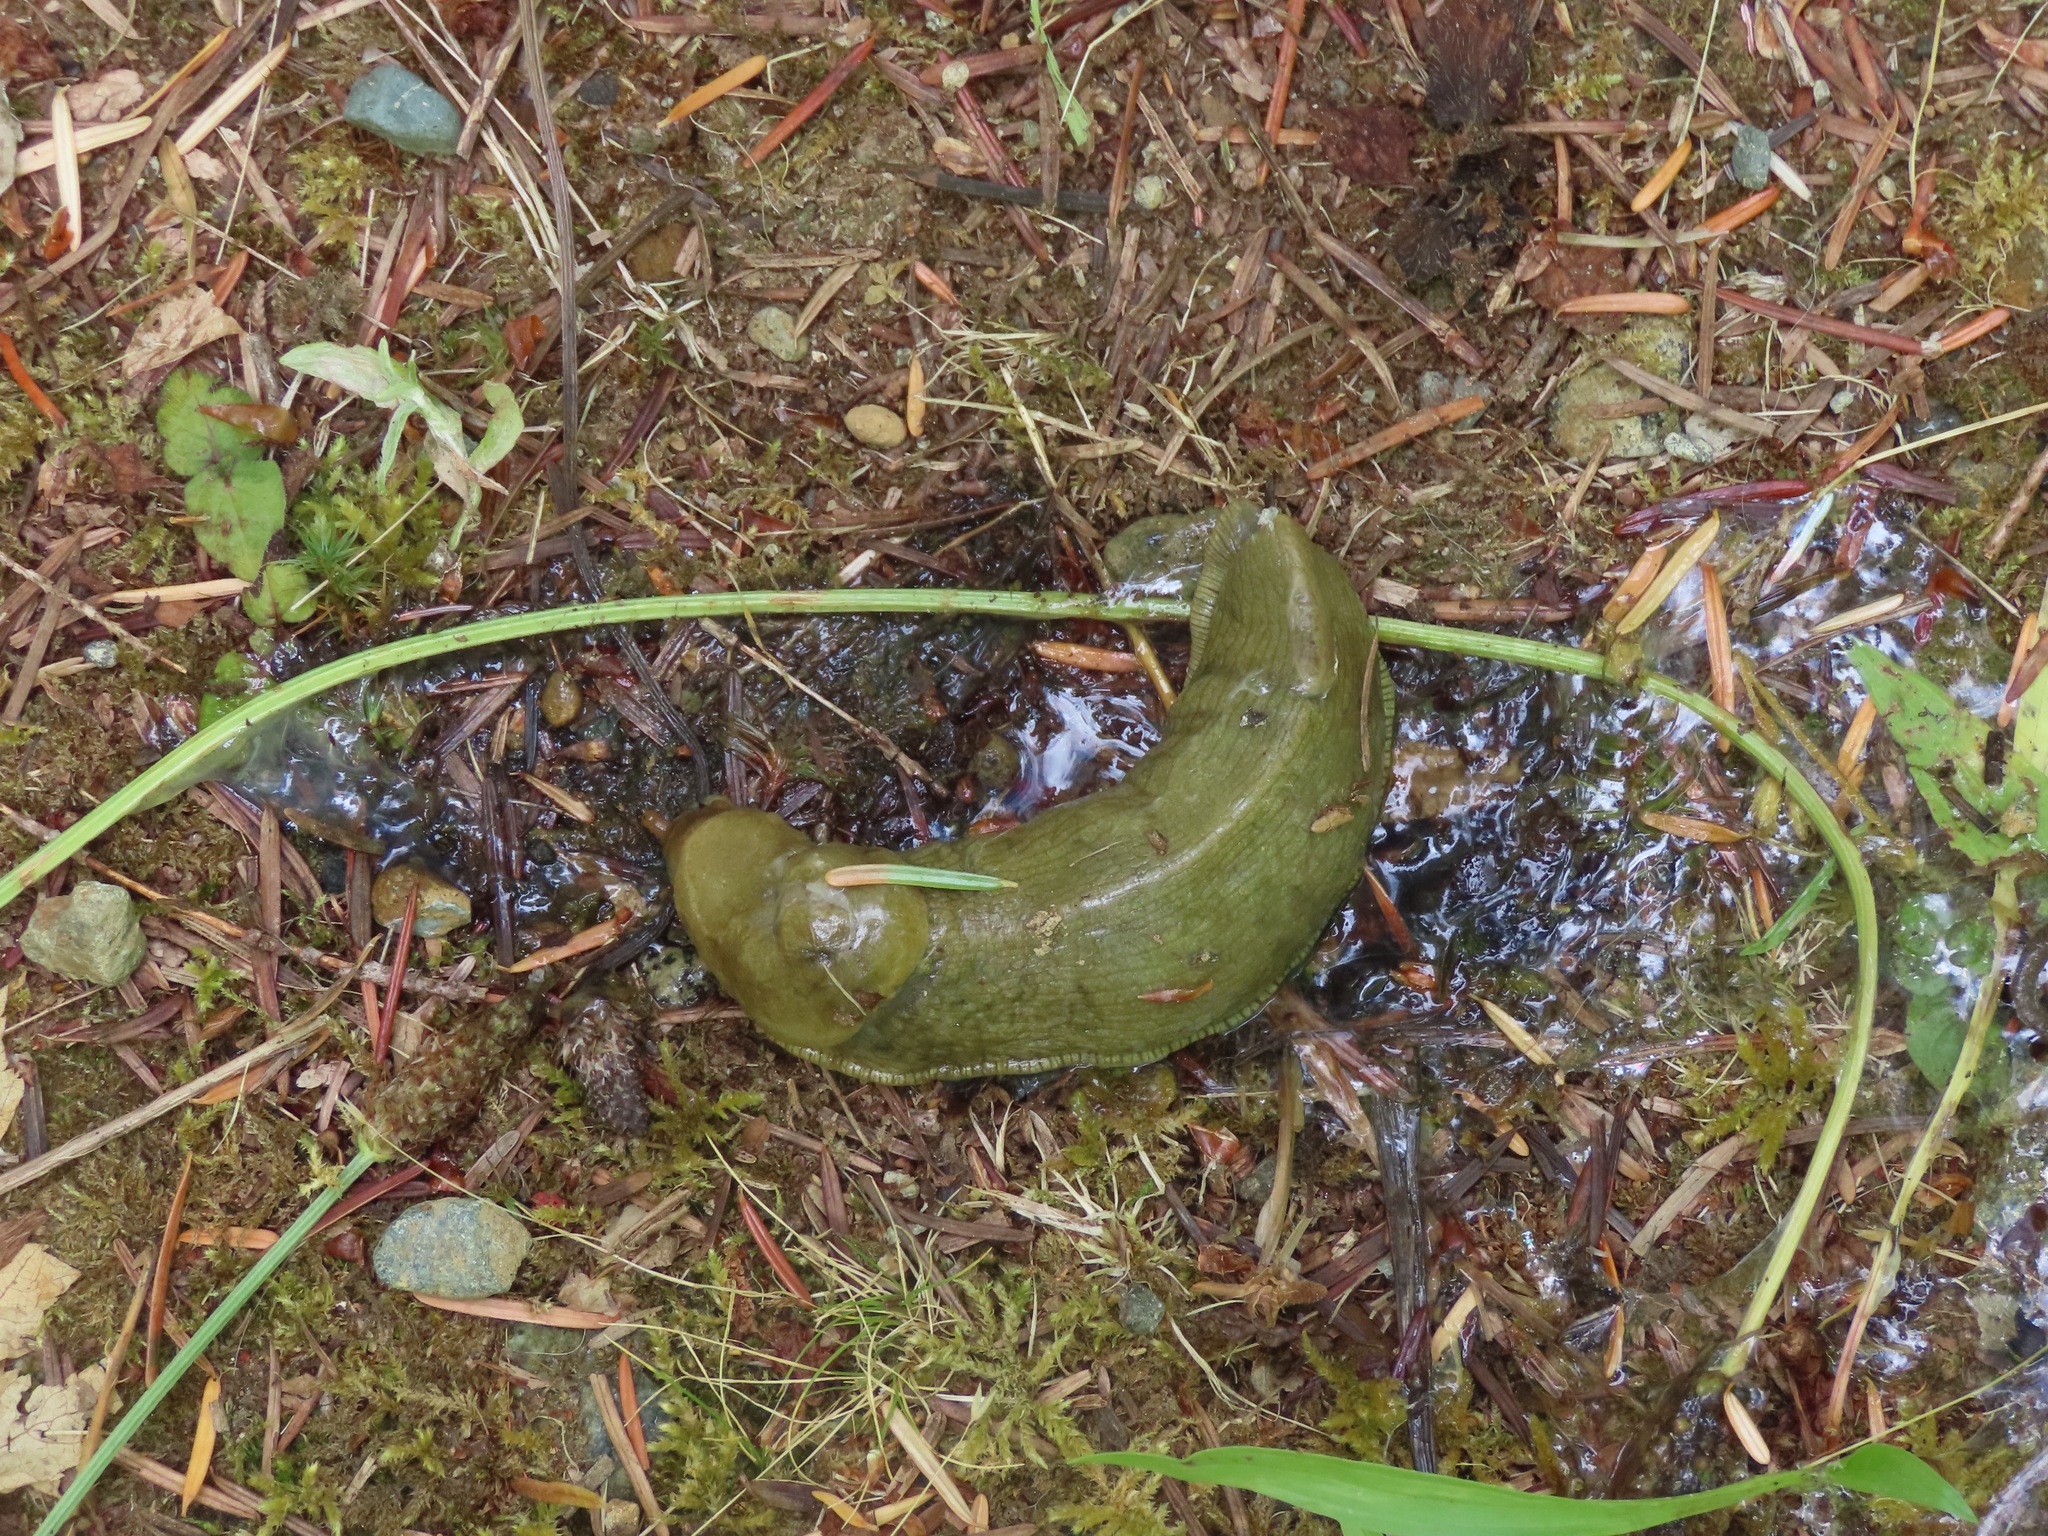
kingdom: Animalia
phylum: Mollusca
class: Gastropoda
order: Stylommatophora
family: Ariolimacidae
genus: Ariolimax
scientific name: Ariolimax columbianus
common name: Pacific banana slug
